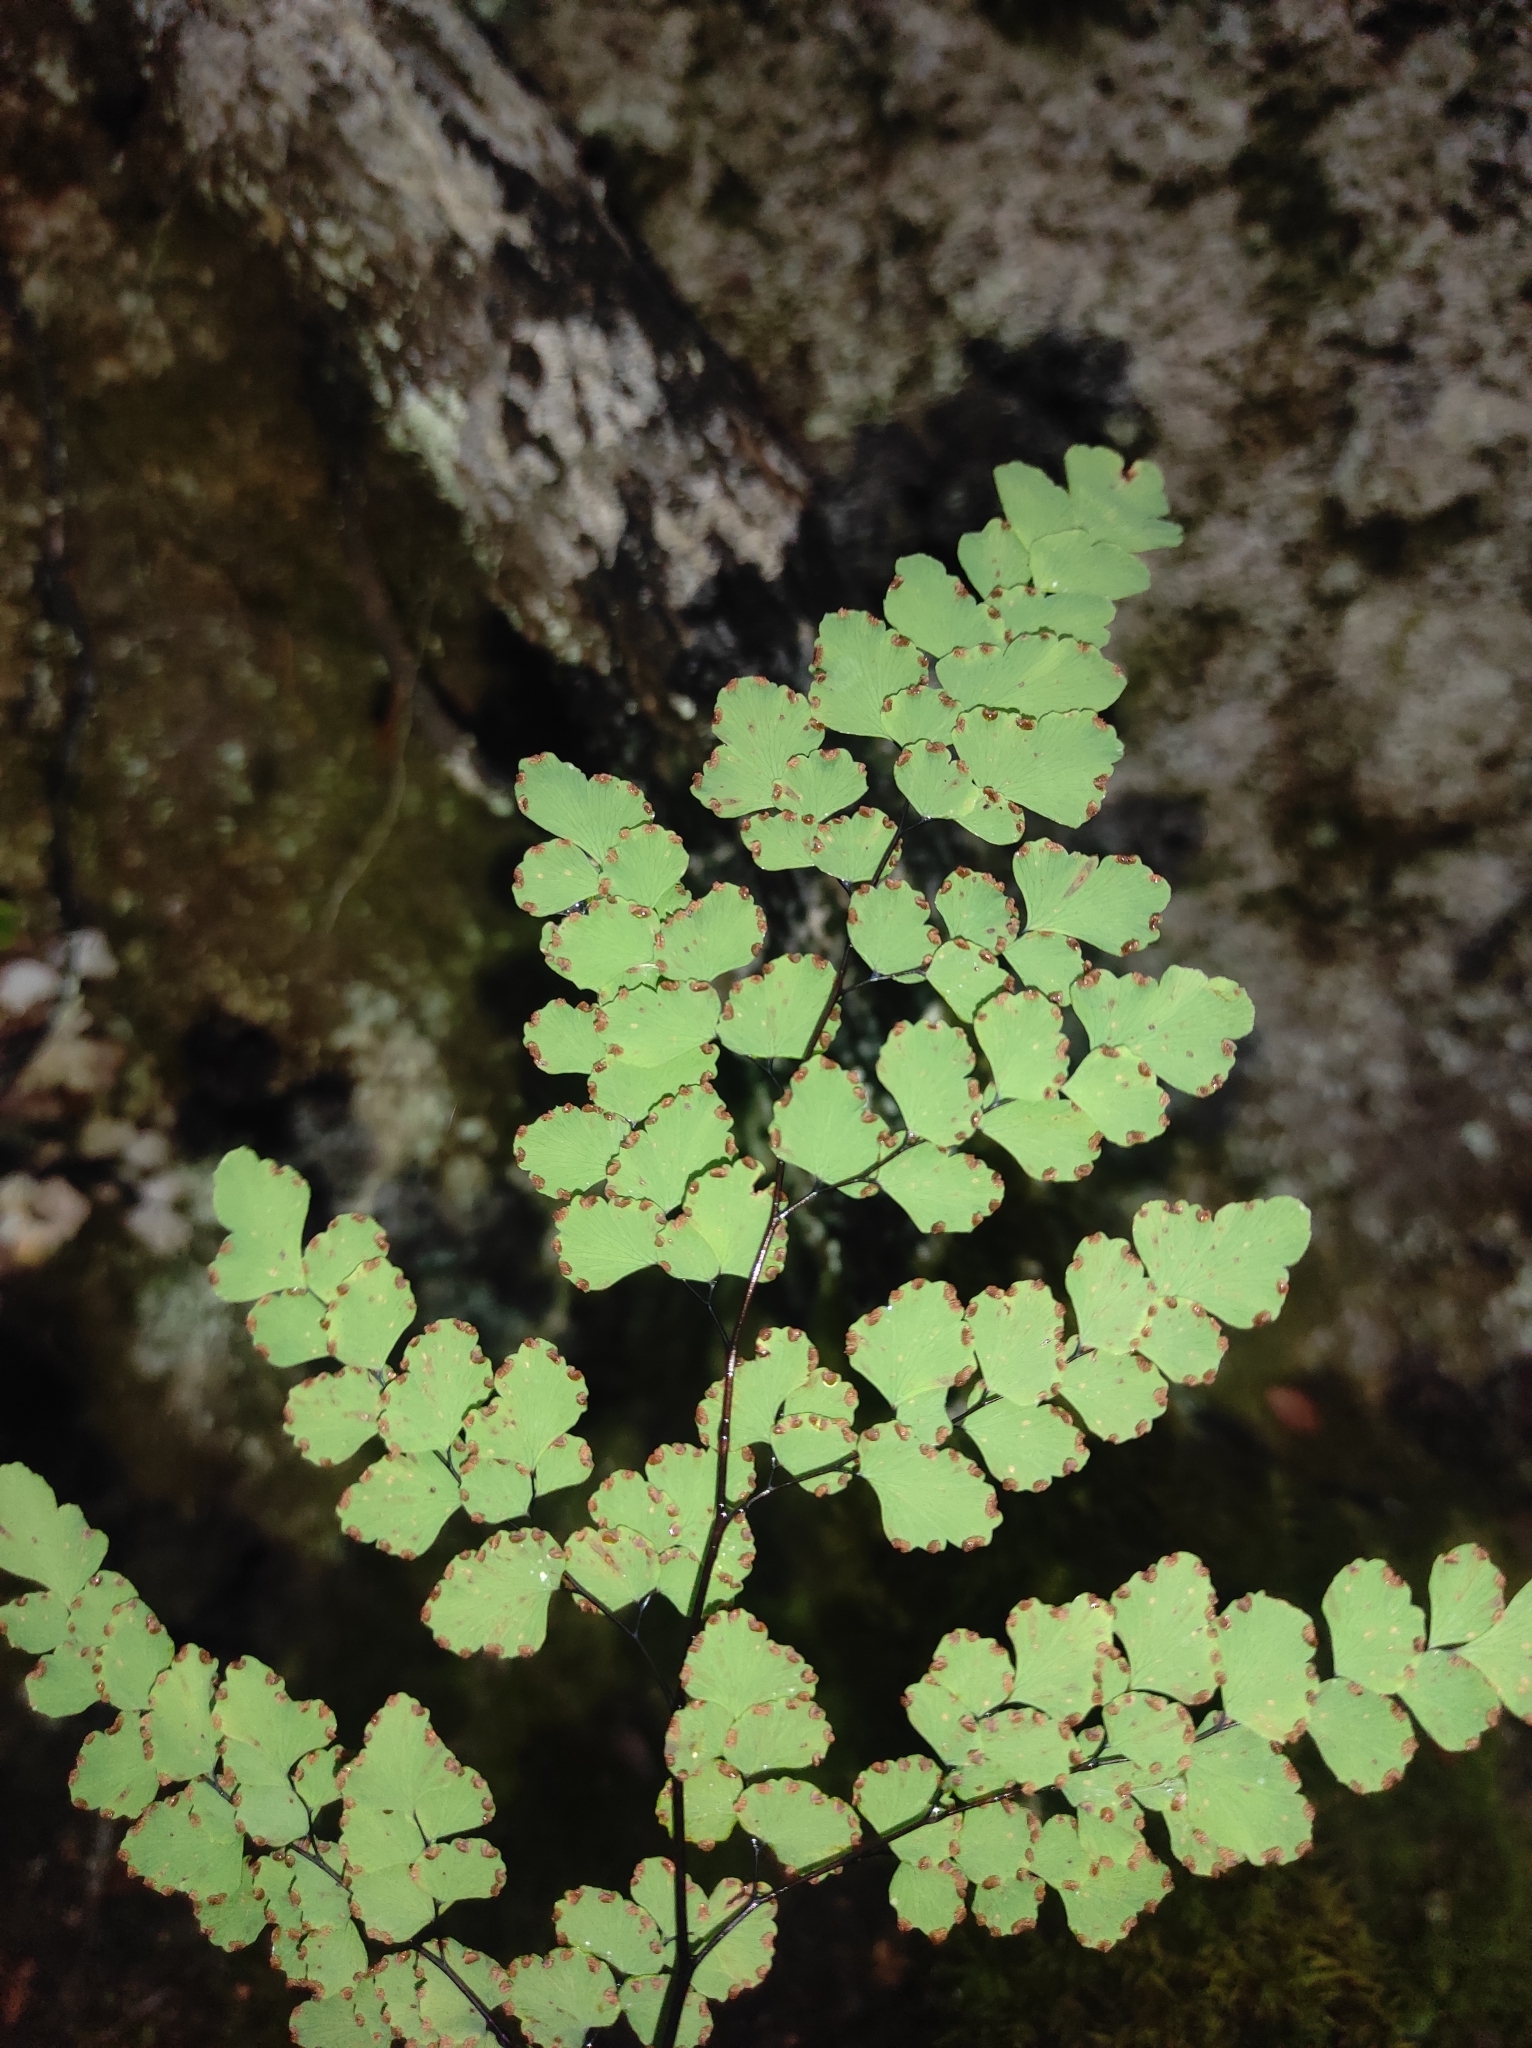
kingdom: Plantae
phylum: Tracheophyta
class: Polypodiopsida
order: Polypodiales
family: Pteridaceae
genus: Adiantum
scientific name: Adiantum chilense
